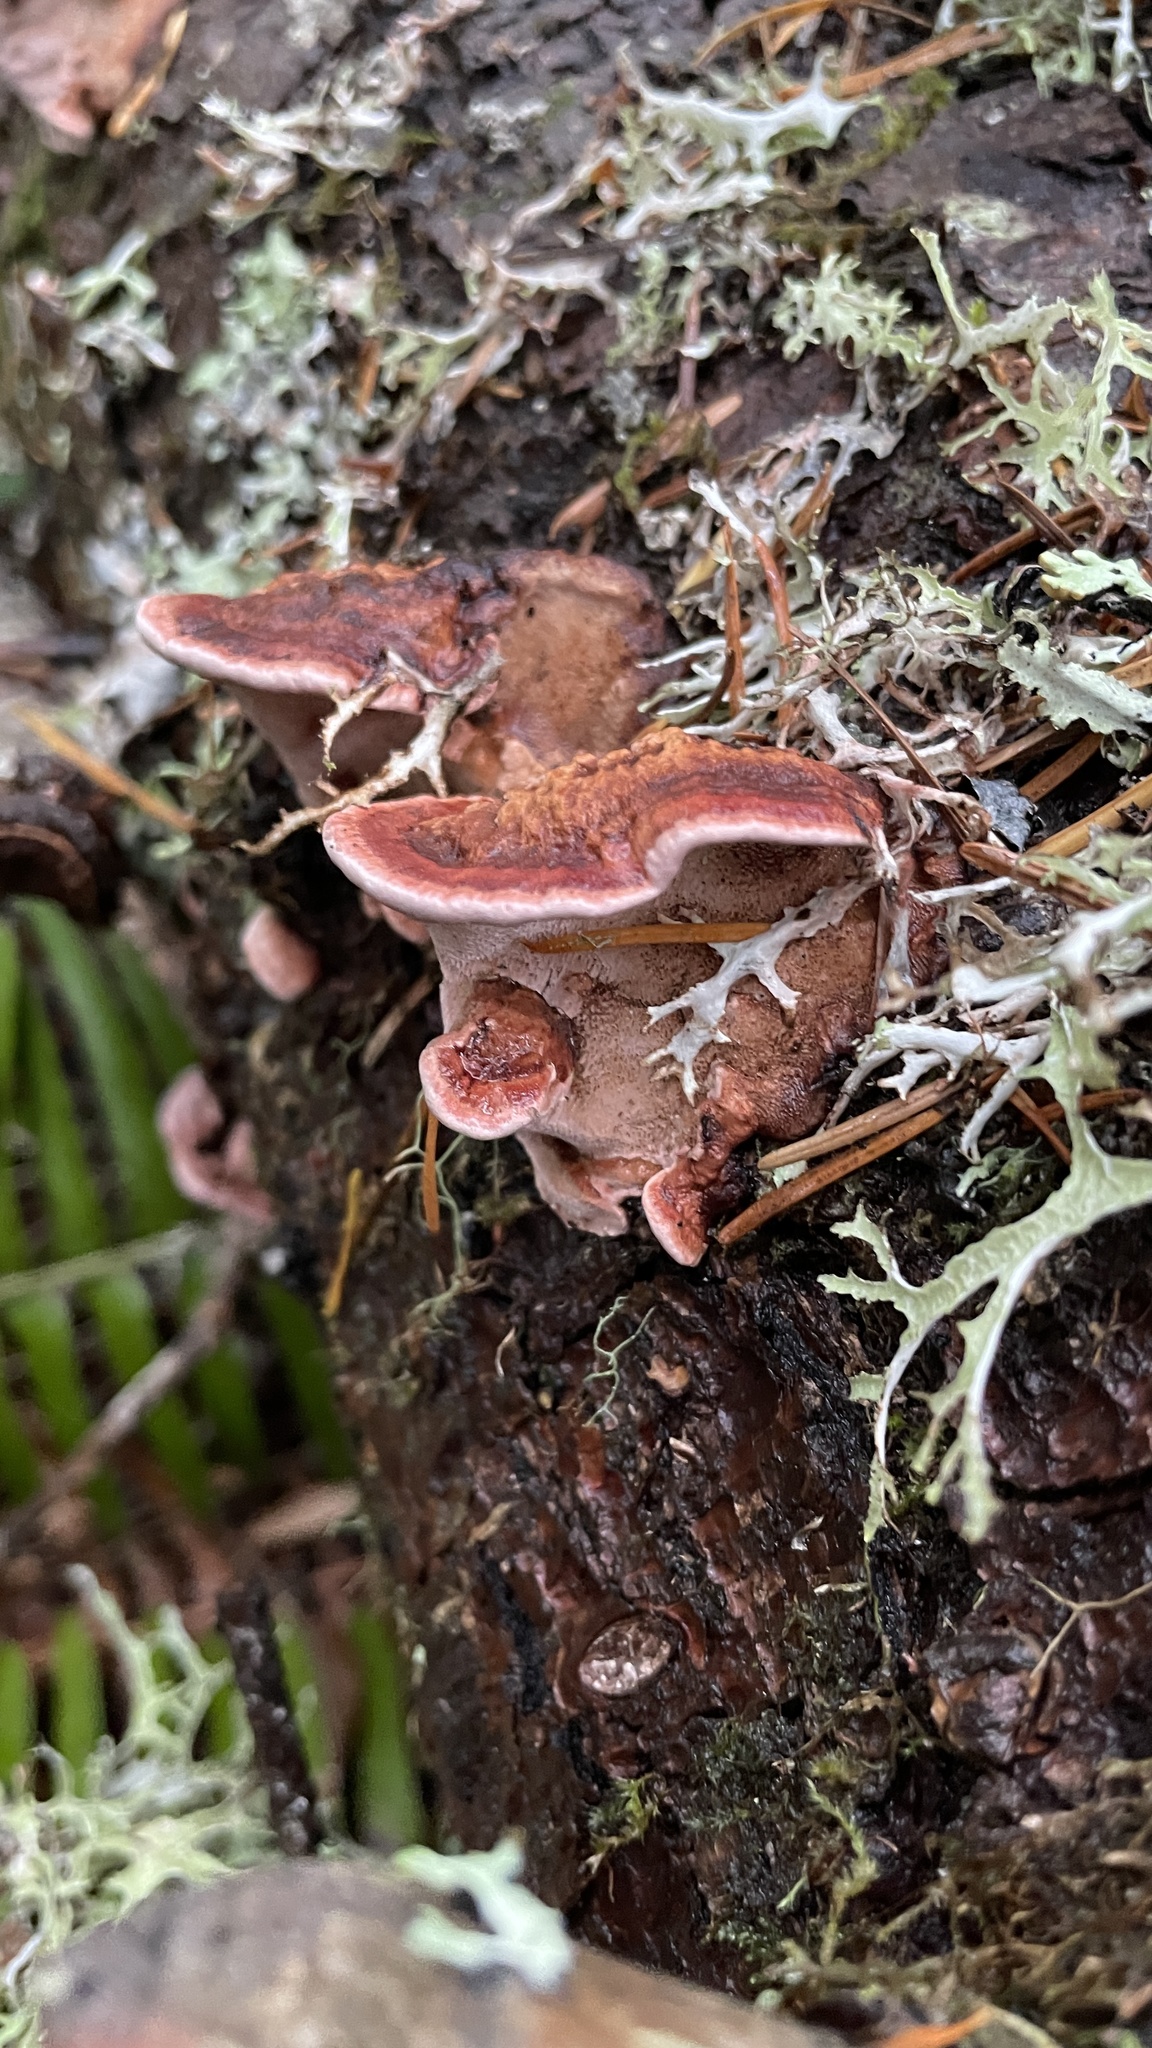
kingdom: Fungi
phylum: Basidiomycota
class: Agaricomycetes
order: Polyporales
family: Fomitopsidaceae
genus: Rhodofomes
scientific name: Rhodofomes cajanderi
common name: Rosy conk
